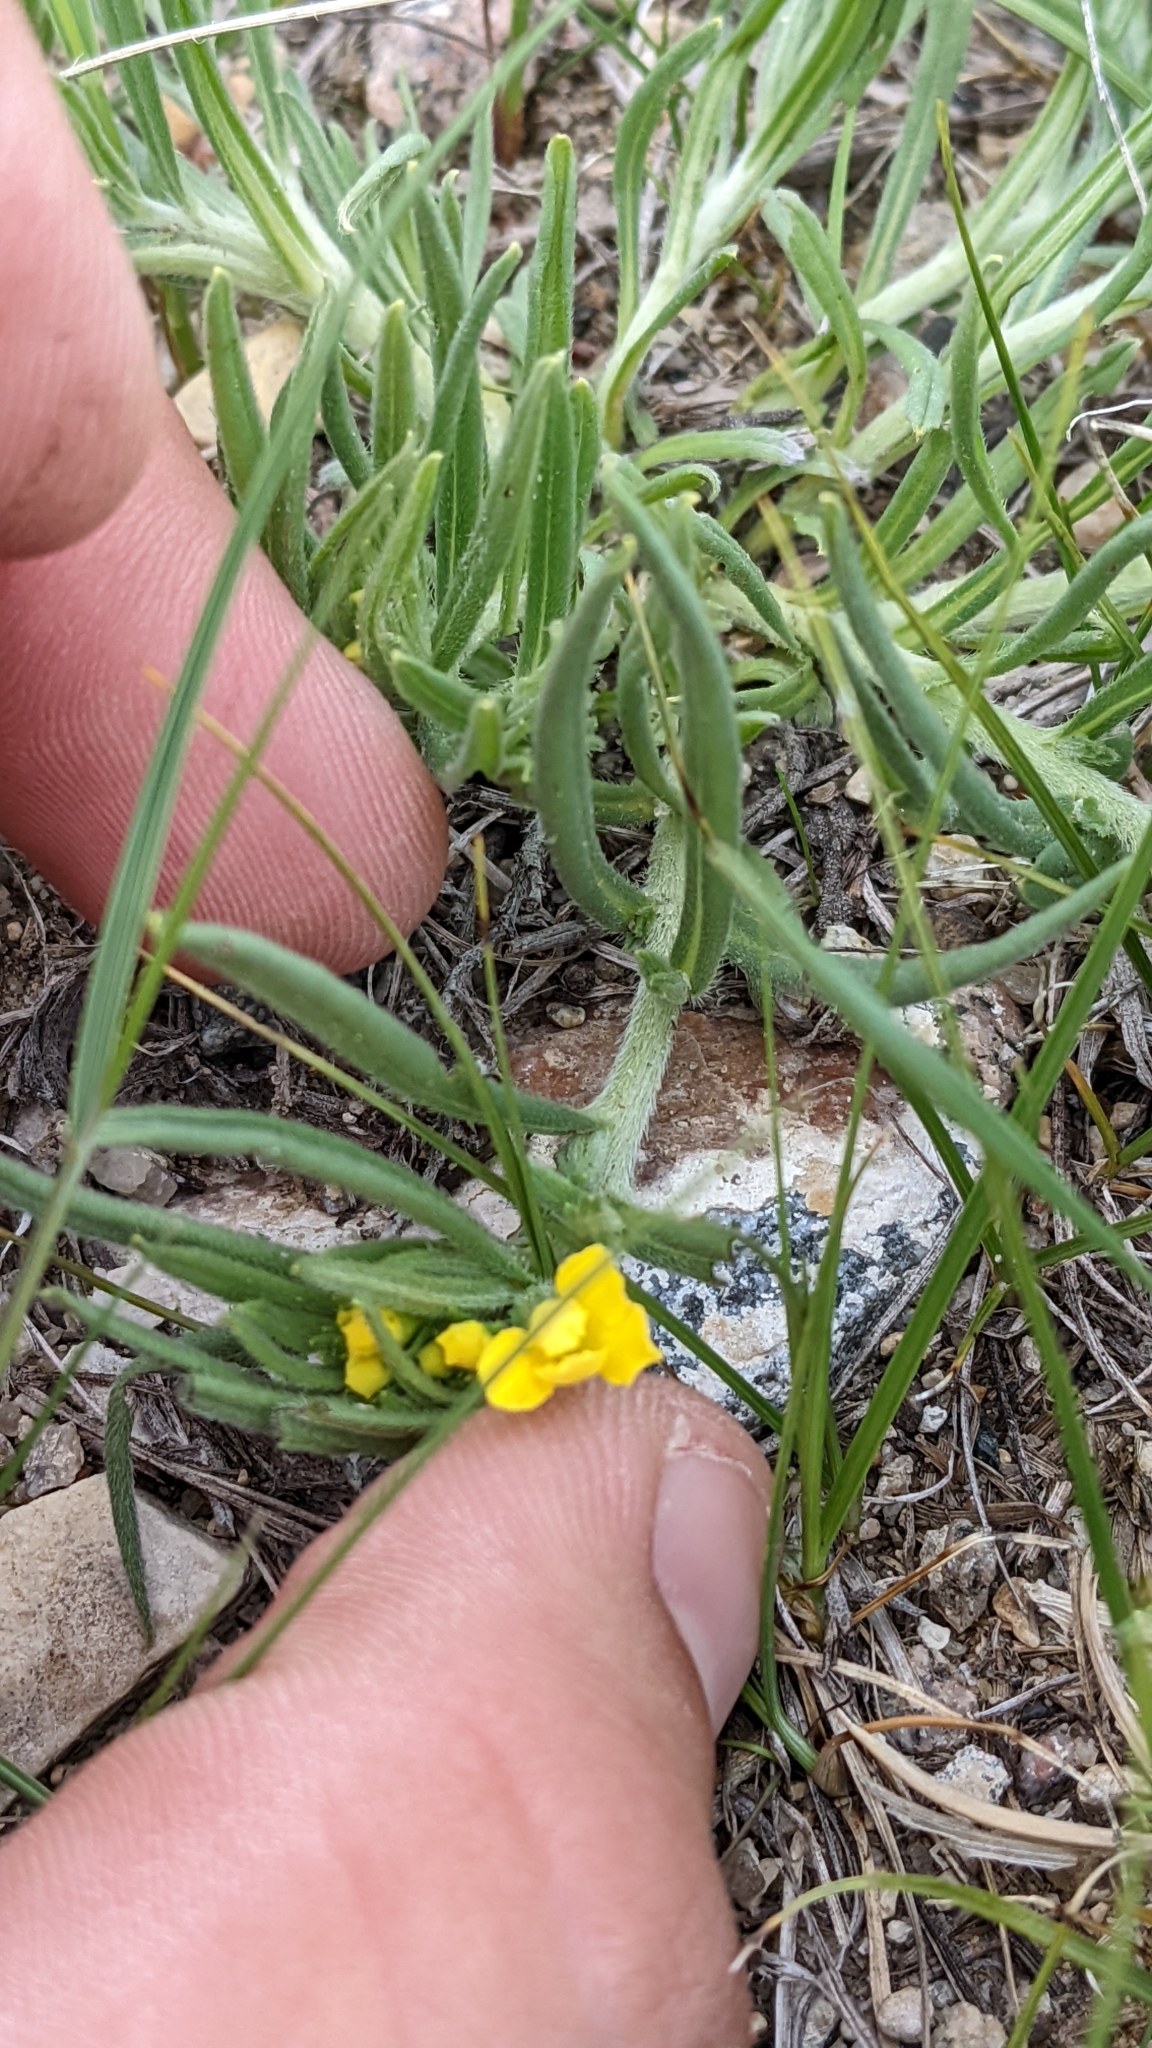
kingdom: Plantae
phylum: Tracheophyta
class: Magnoliopsida
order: Boraginales
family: Boraginaceae
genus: Lithospermum
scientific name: Lithospermum incisum
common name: Fringed gromwell
